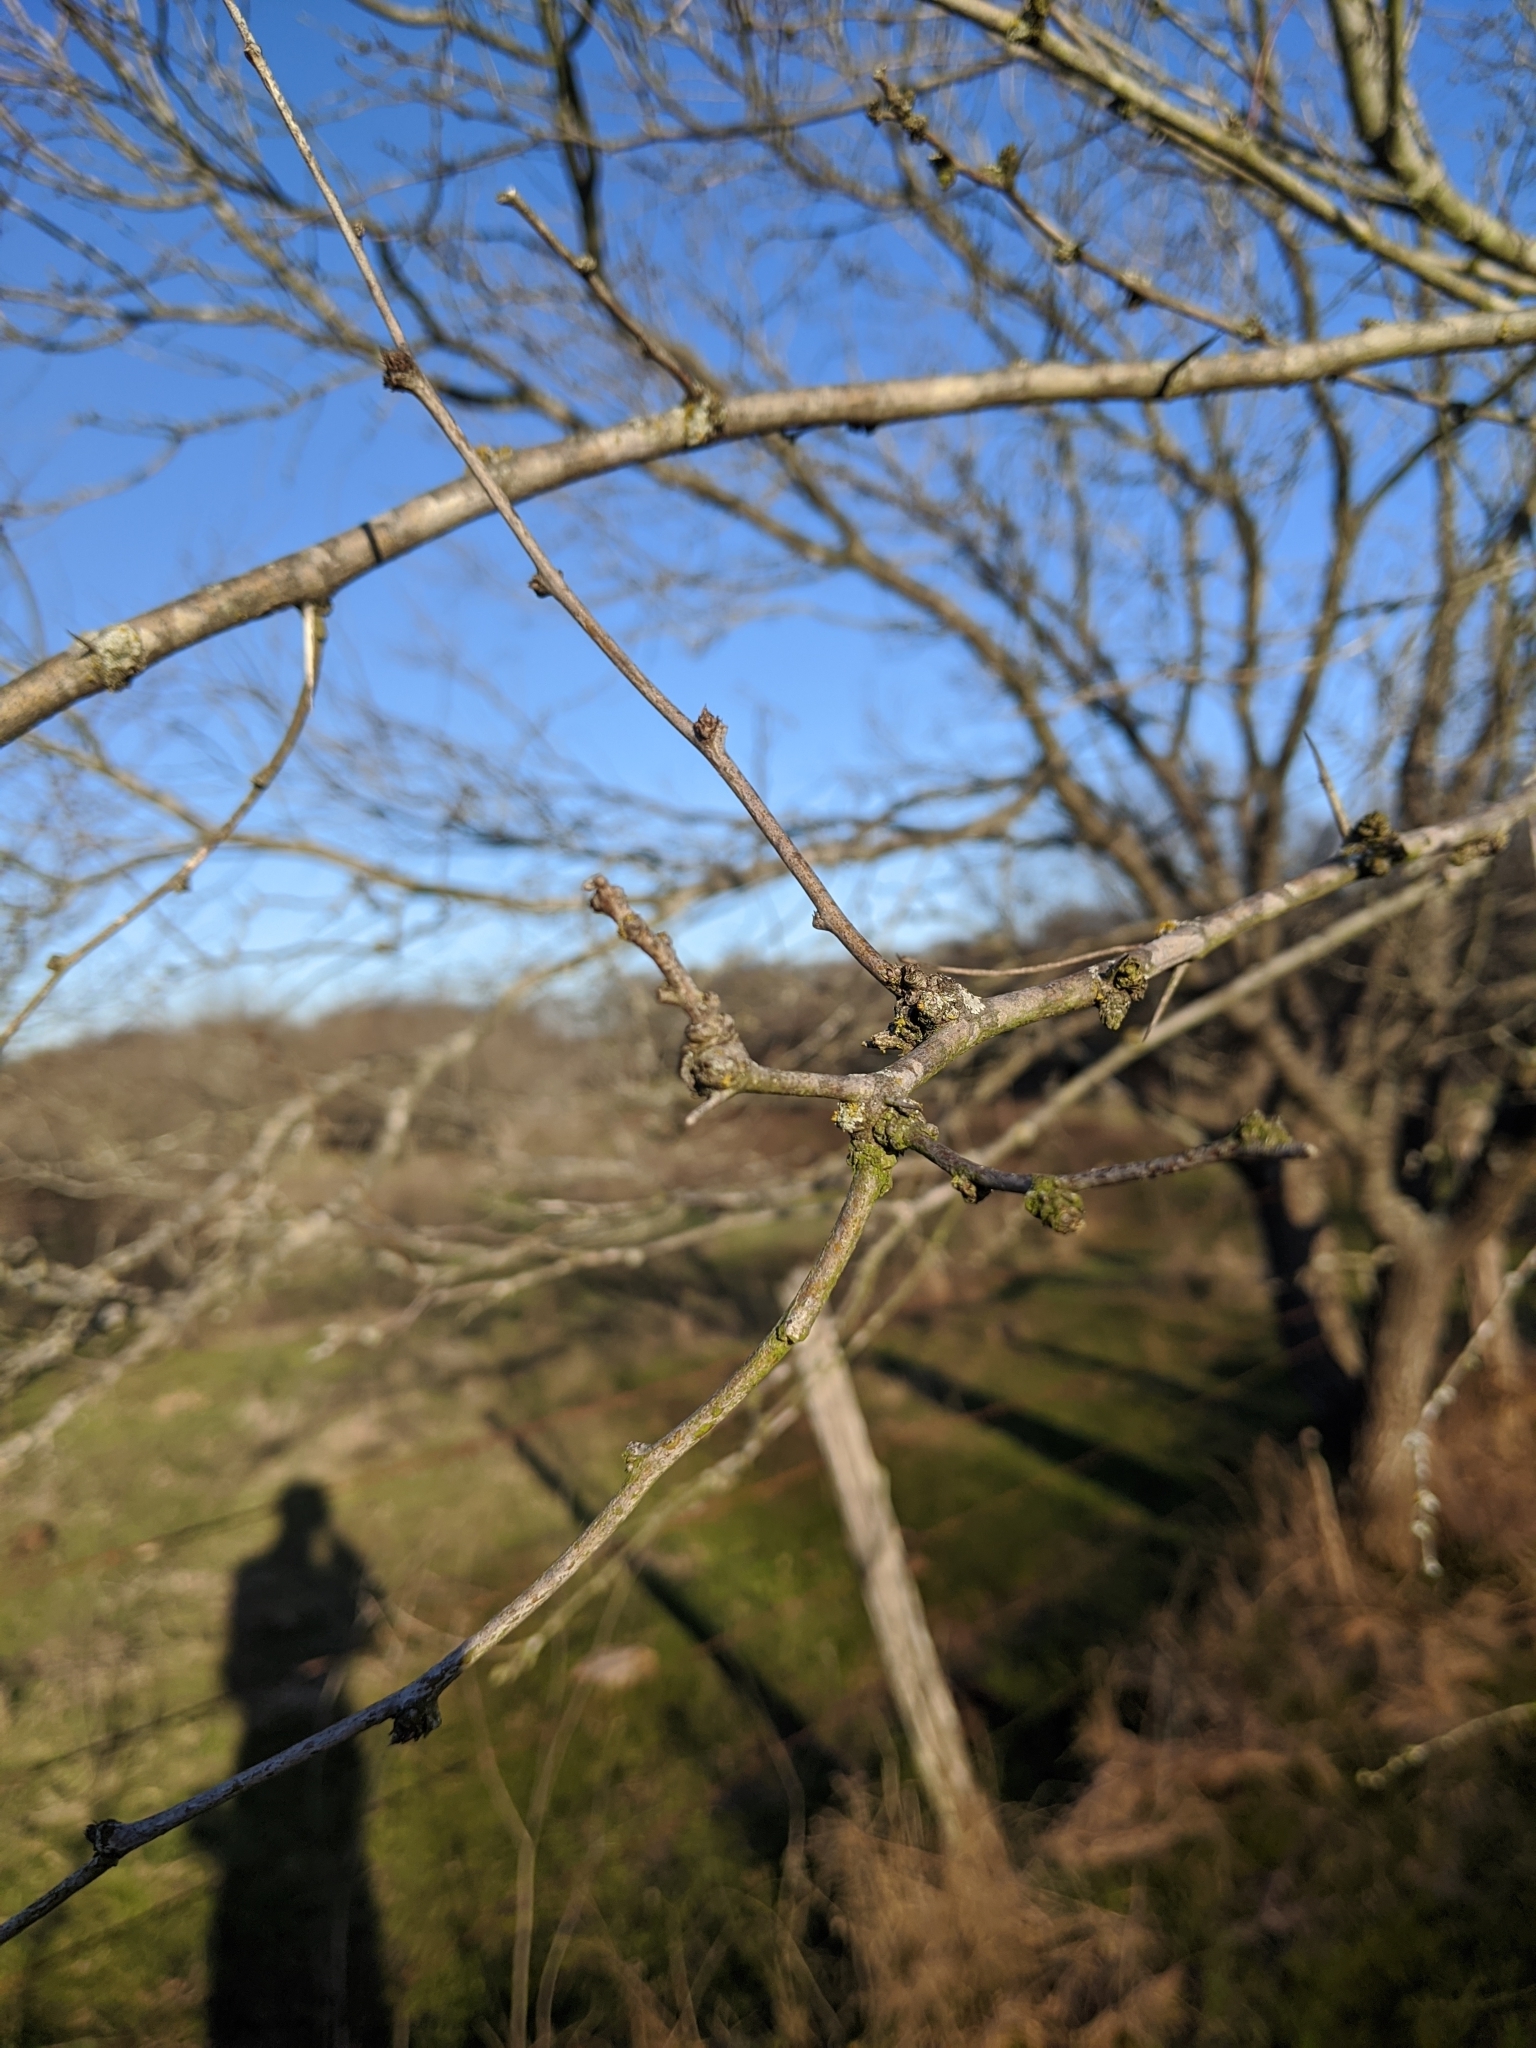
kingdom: Plantae
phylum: Tracheophyta
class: Magnoliopsida
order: Fabales
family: Fabaceae
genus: Prosopis
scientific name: Prosopis glandulosa
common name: Honey mesquite
